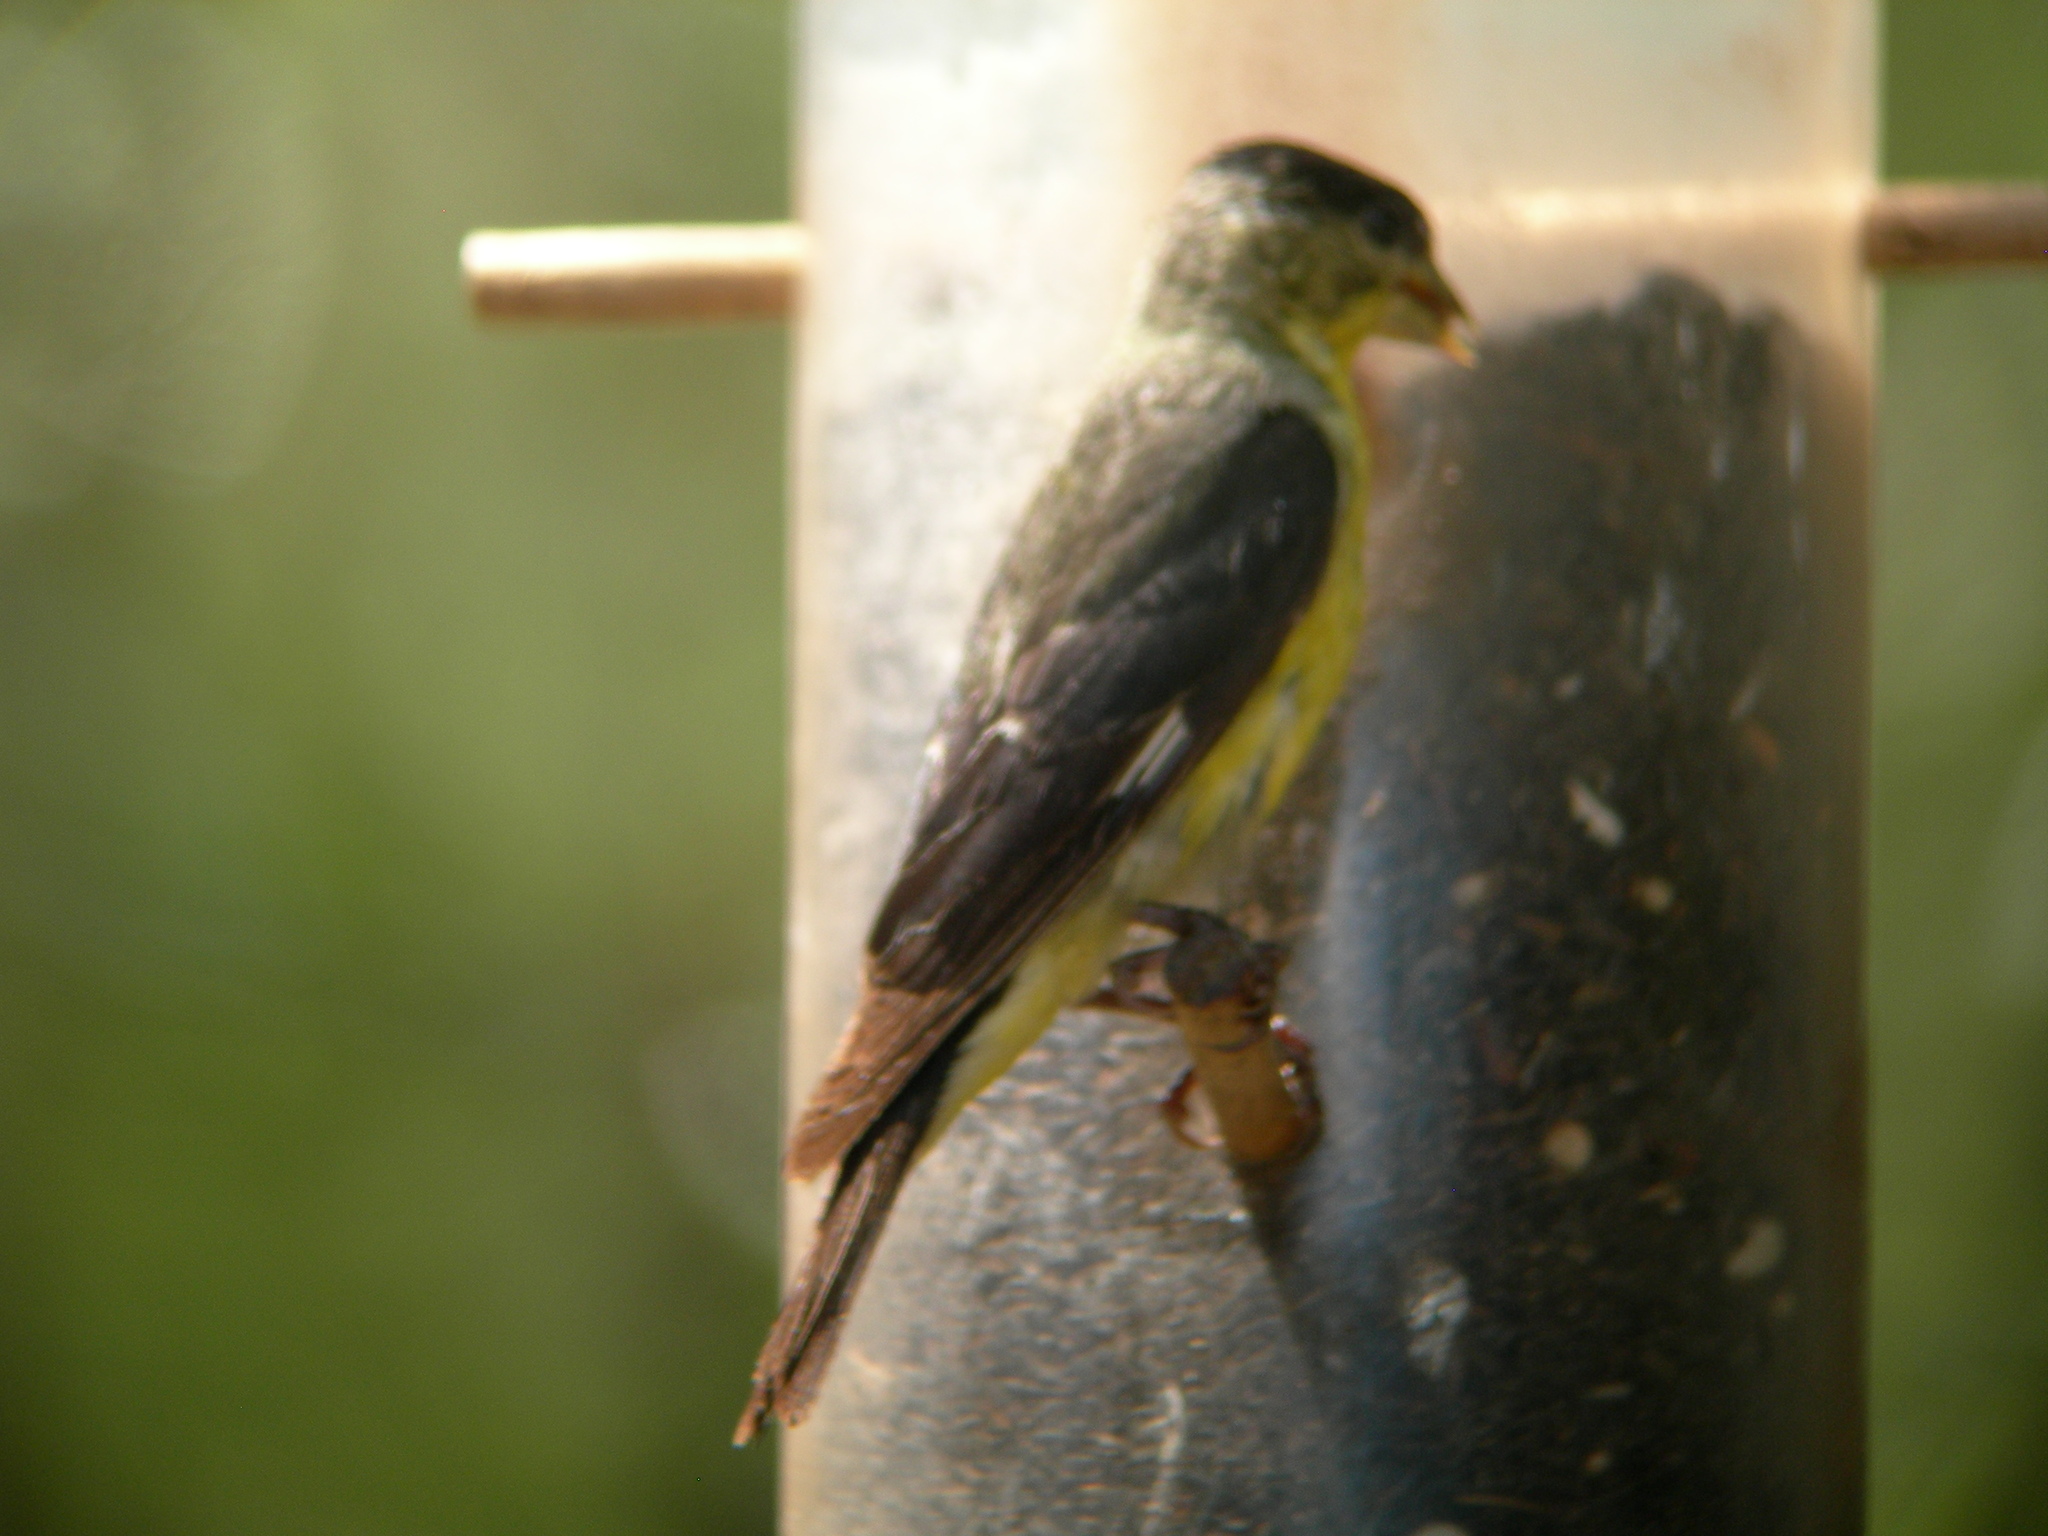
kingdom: Animalia
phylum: Chordata
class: Aves
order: Passeriformes
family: Fringillidae
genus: Spinus
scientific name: Spinus psaltria
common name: Lesser goldfinch
